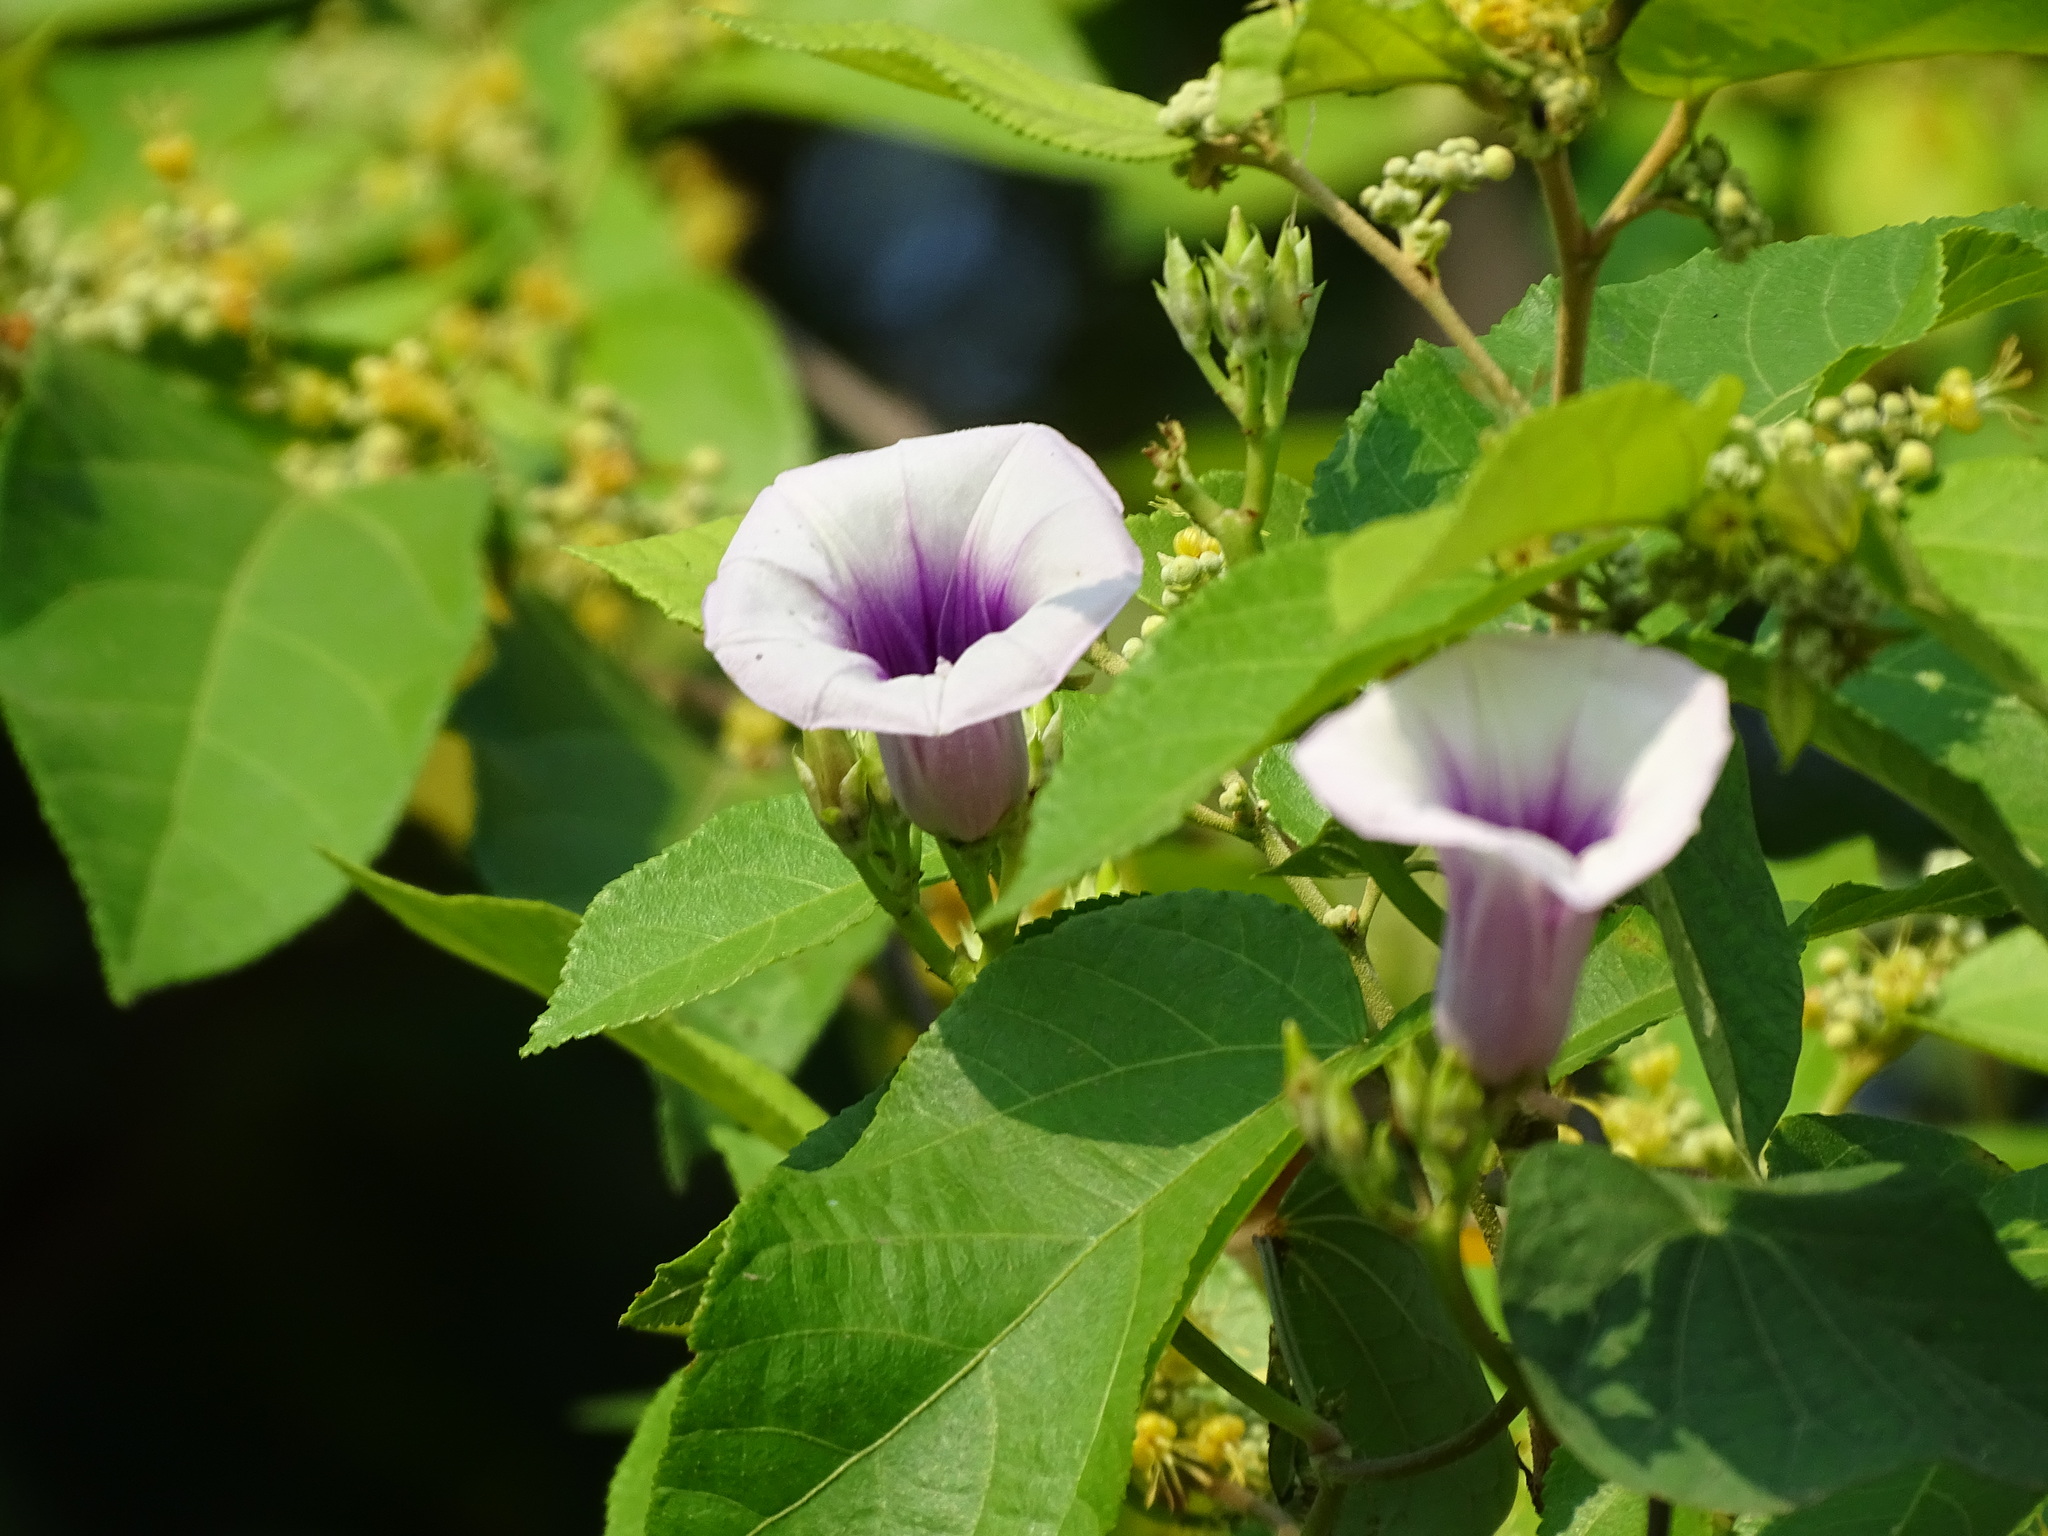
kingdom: Plantae
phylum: Tracheophyta
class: Magnoliopsida
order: Solanales
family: Convolvulaceae
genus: Ipomoea
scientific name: Ipomoea batatas
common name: Sweet-potato
